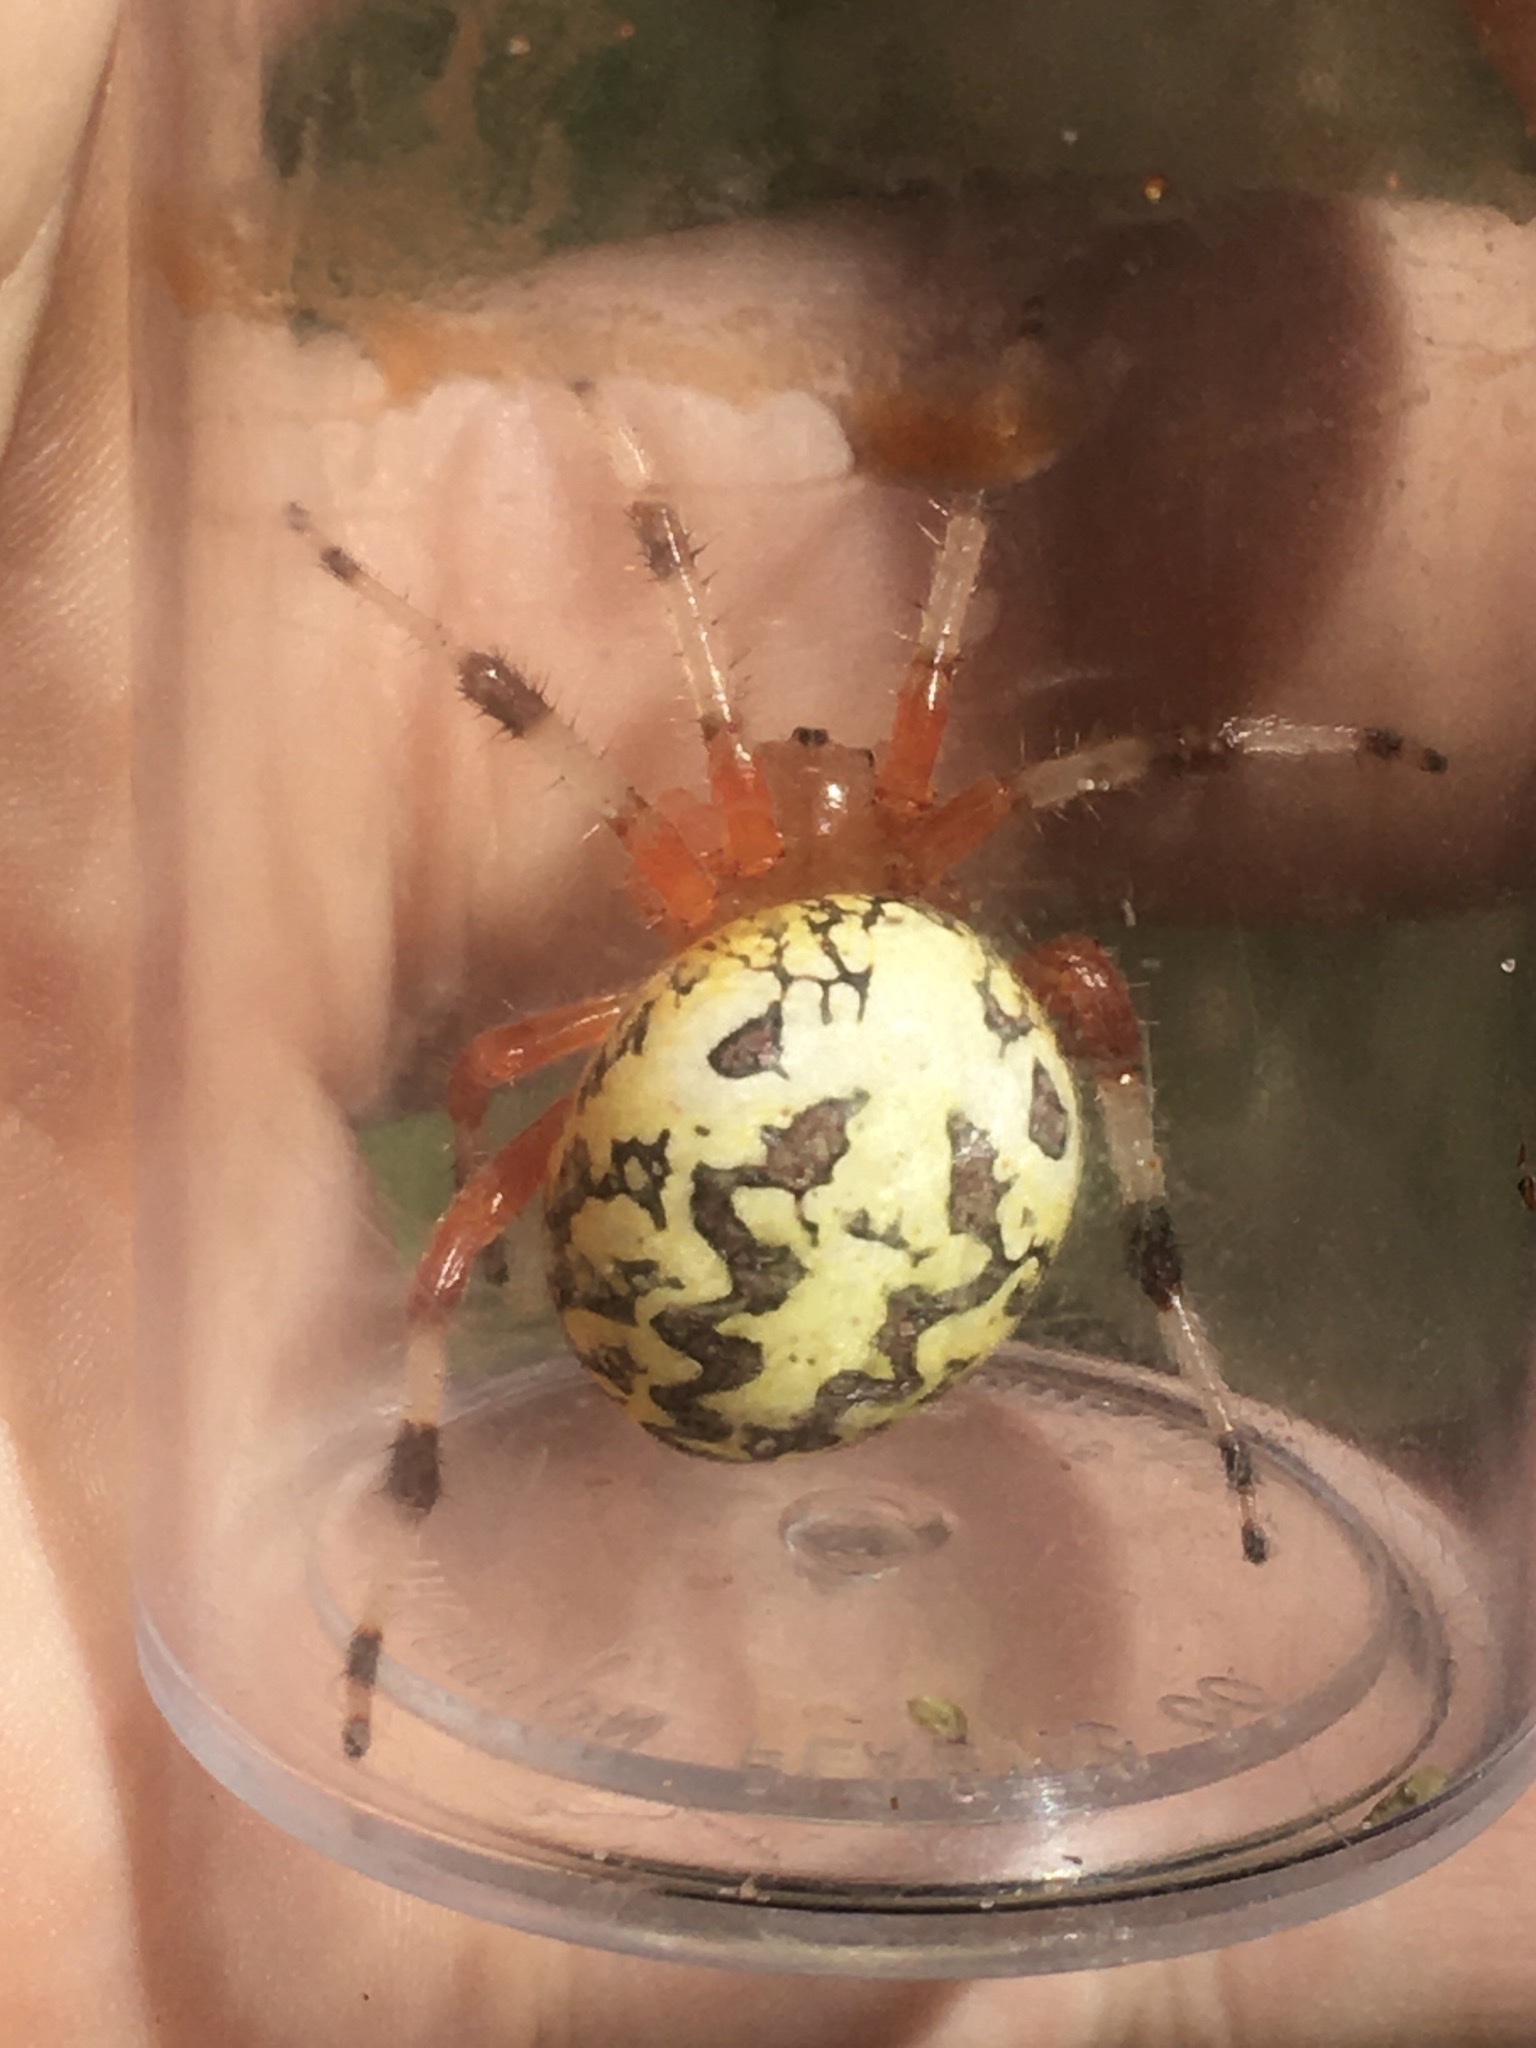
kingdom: Animalia
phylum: Arthropoda
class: Arachnida
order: Araneae
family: Araneidae
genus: Araneus
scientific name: Araneus marmoreus
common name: Marbled orbweaver
